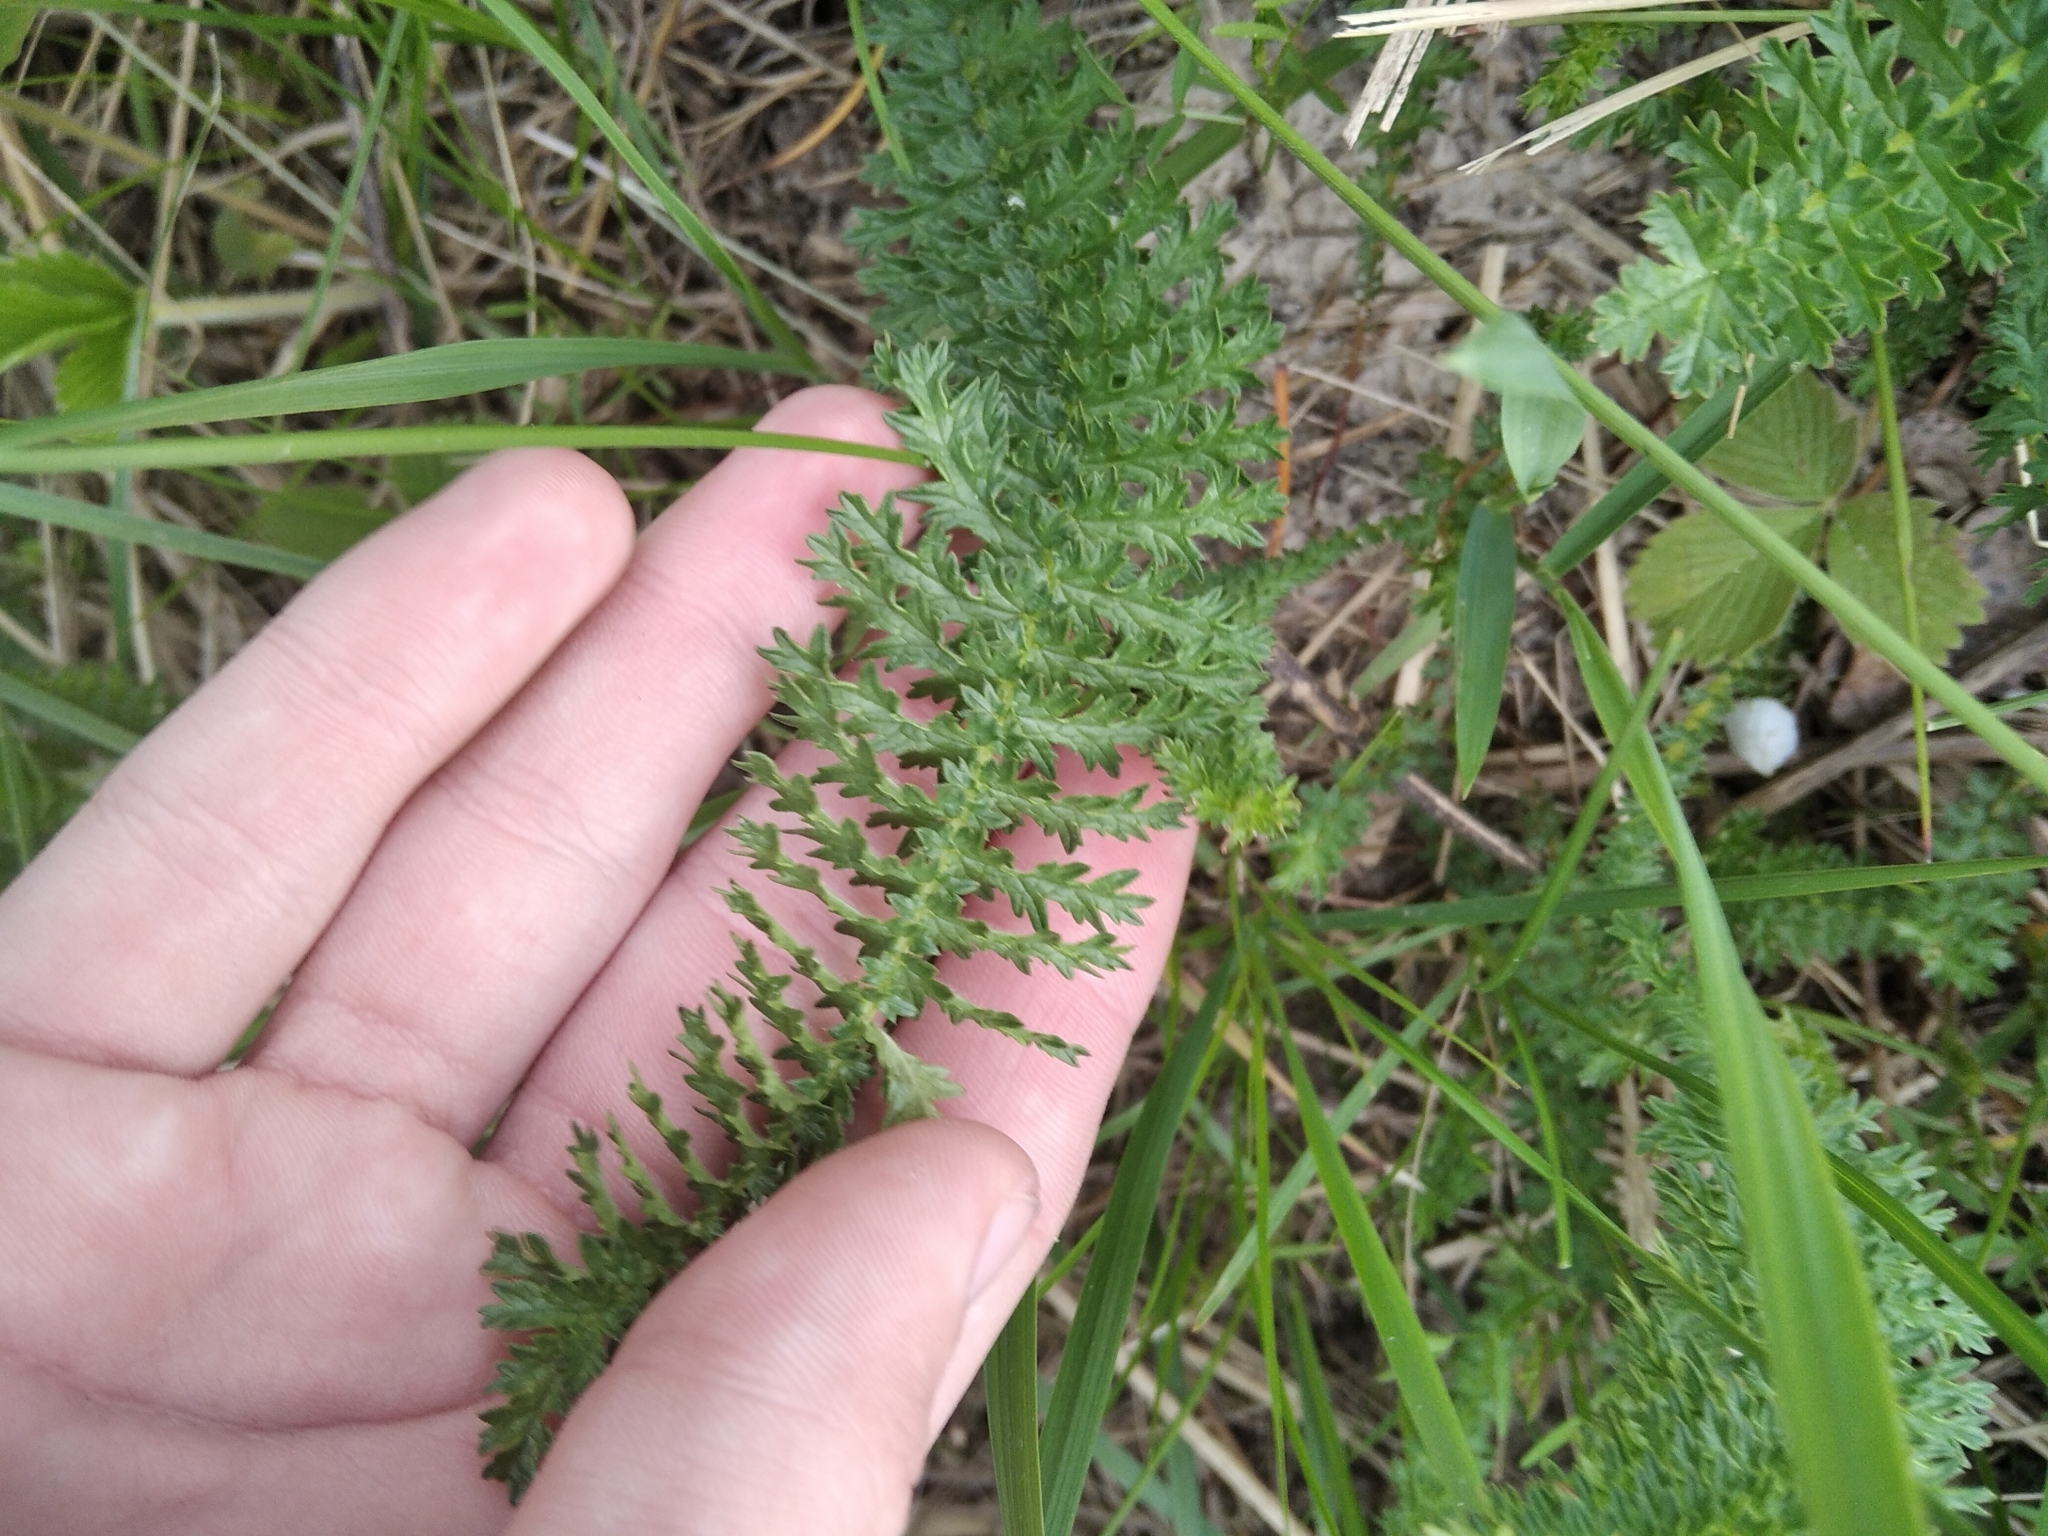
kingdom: Plantae
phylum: Tracheophyta
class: Magnoliopsida
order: Rosales
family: Rosaceae
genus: Filipendula
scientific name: Filipendula vulgaris
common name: Dropwort
